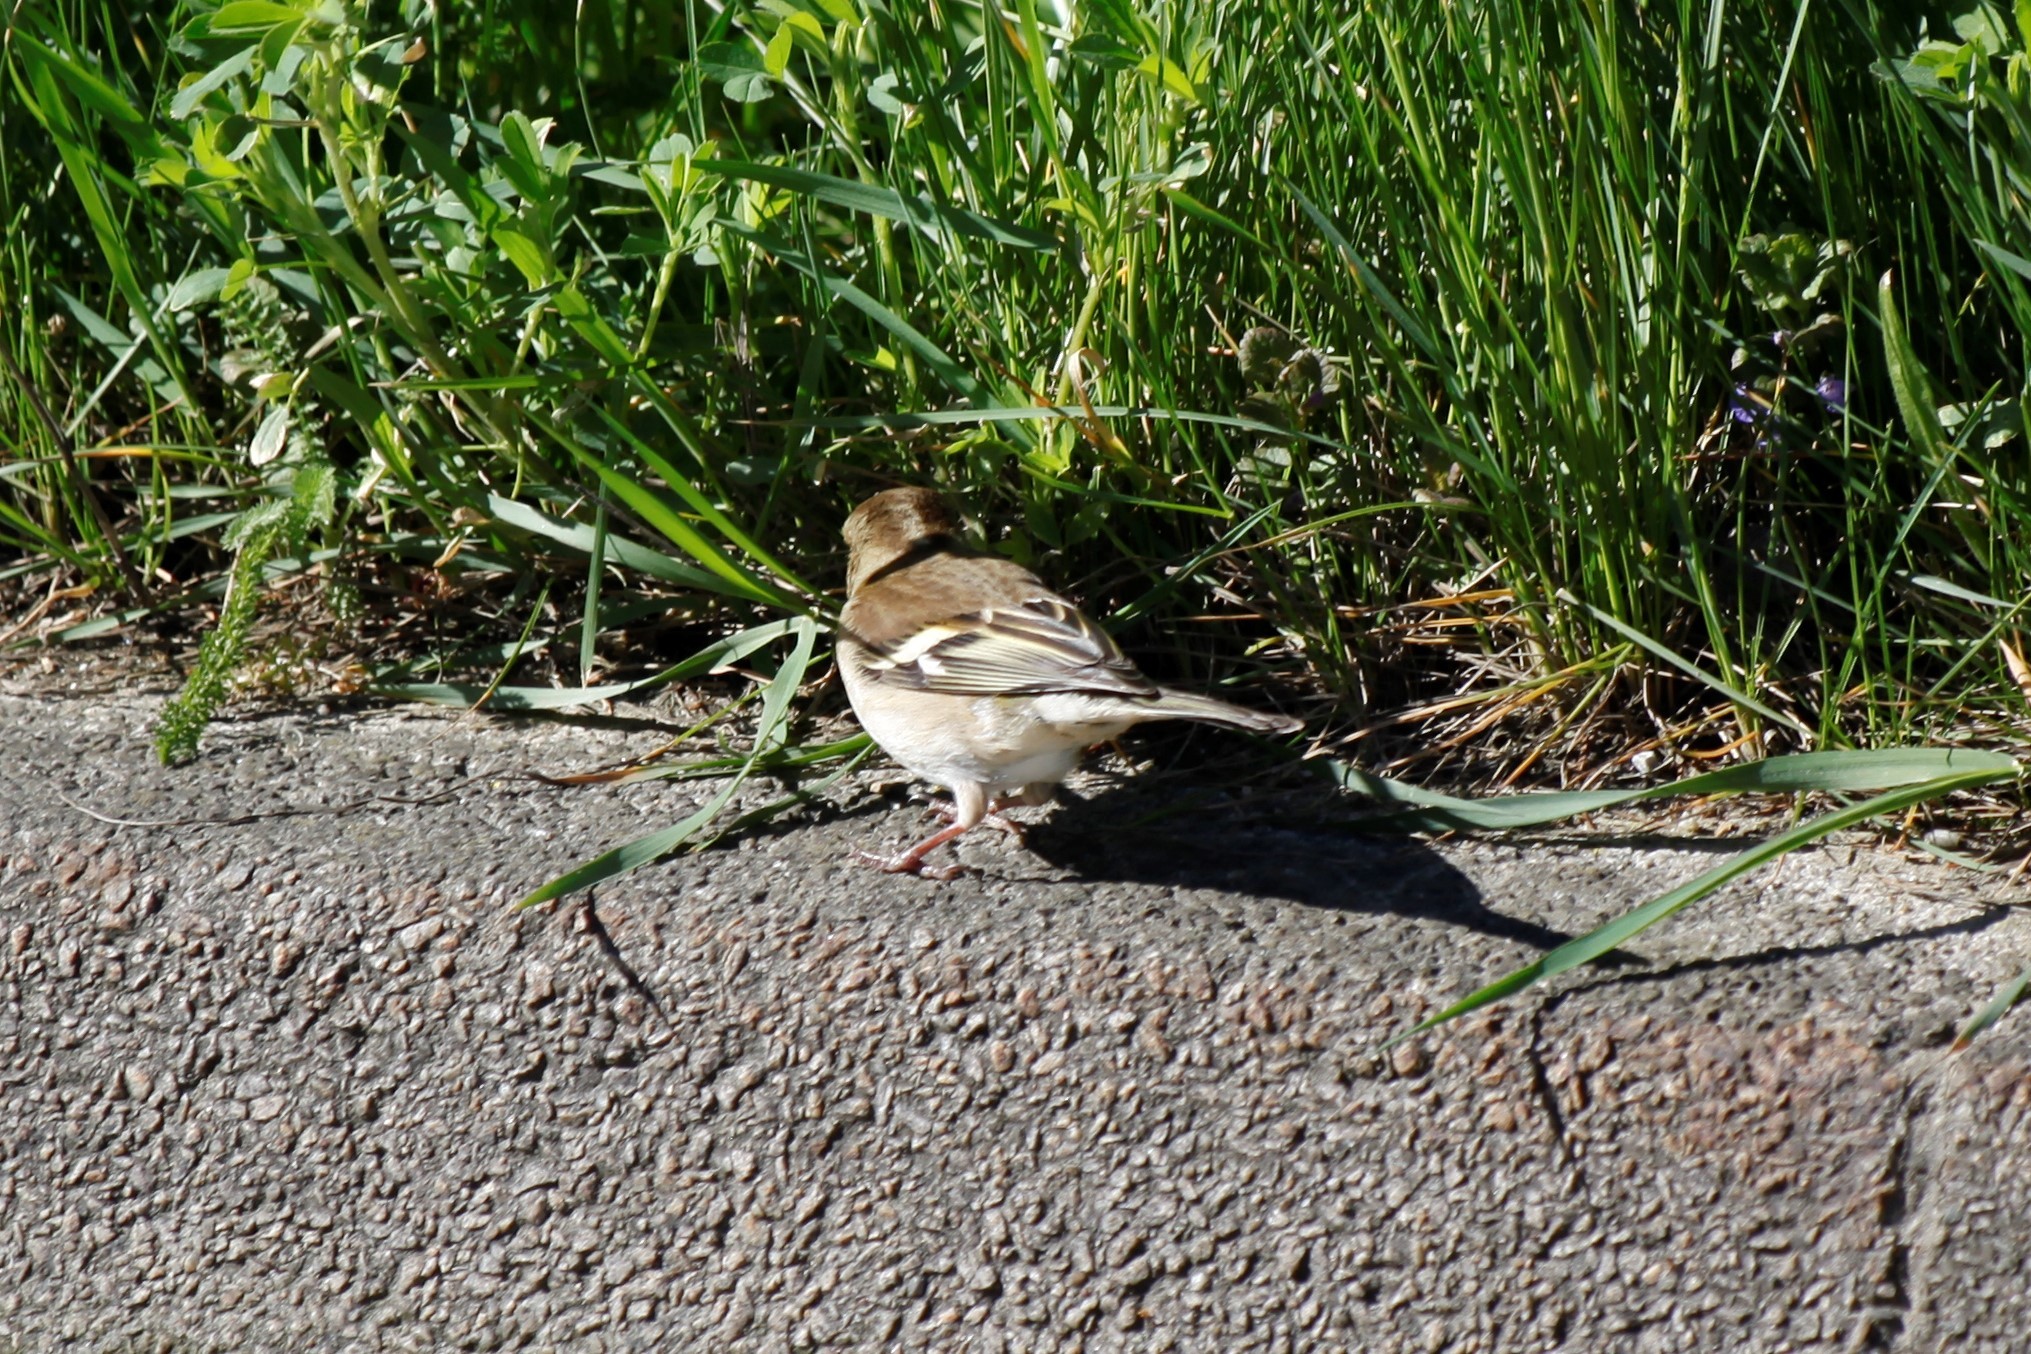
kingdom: Animalia
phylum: Chordata
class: Aves
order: Passeriformes
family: Fringillidae
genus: Fringilla
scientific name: Fringilla coelebs
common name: Common chaffinch
